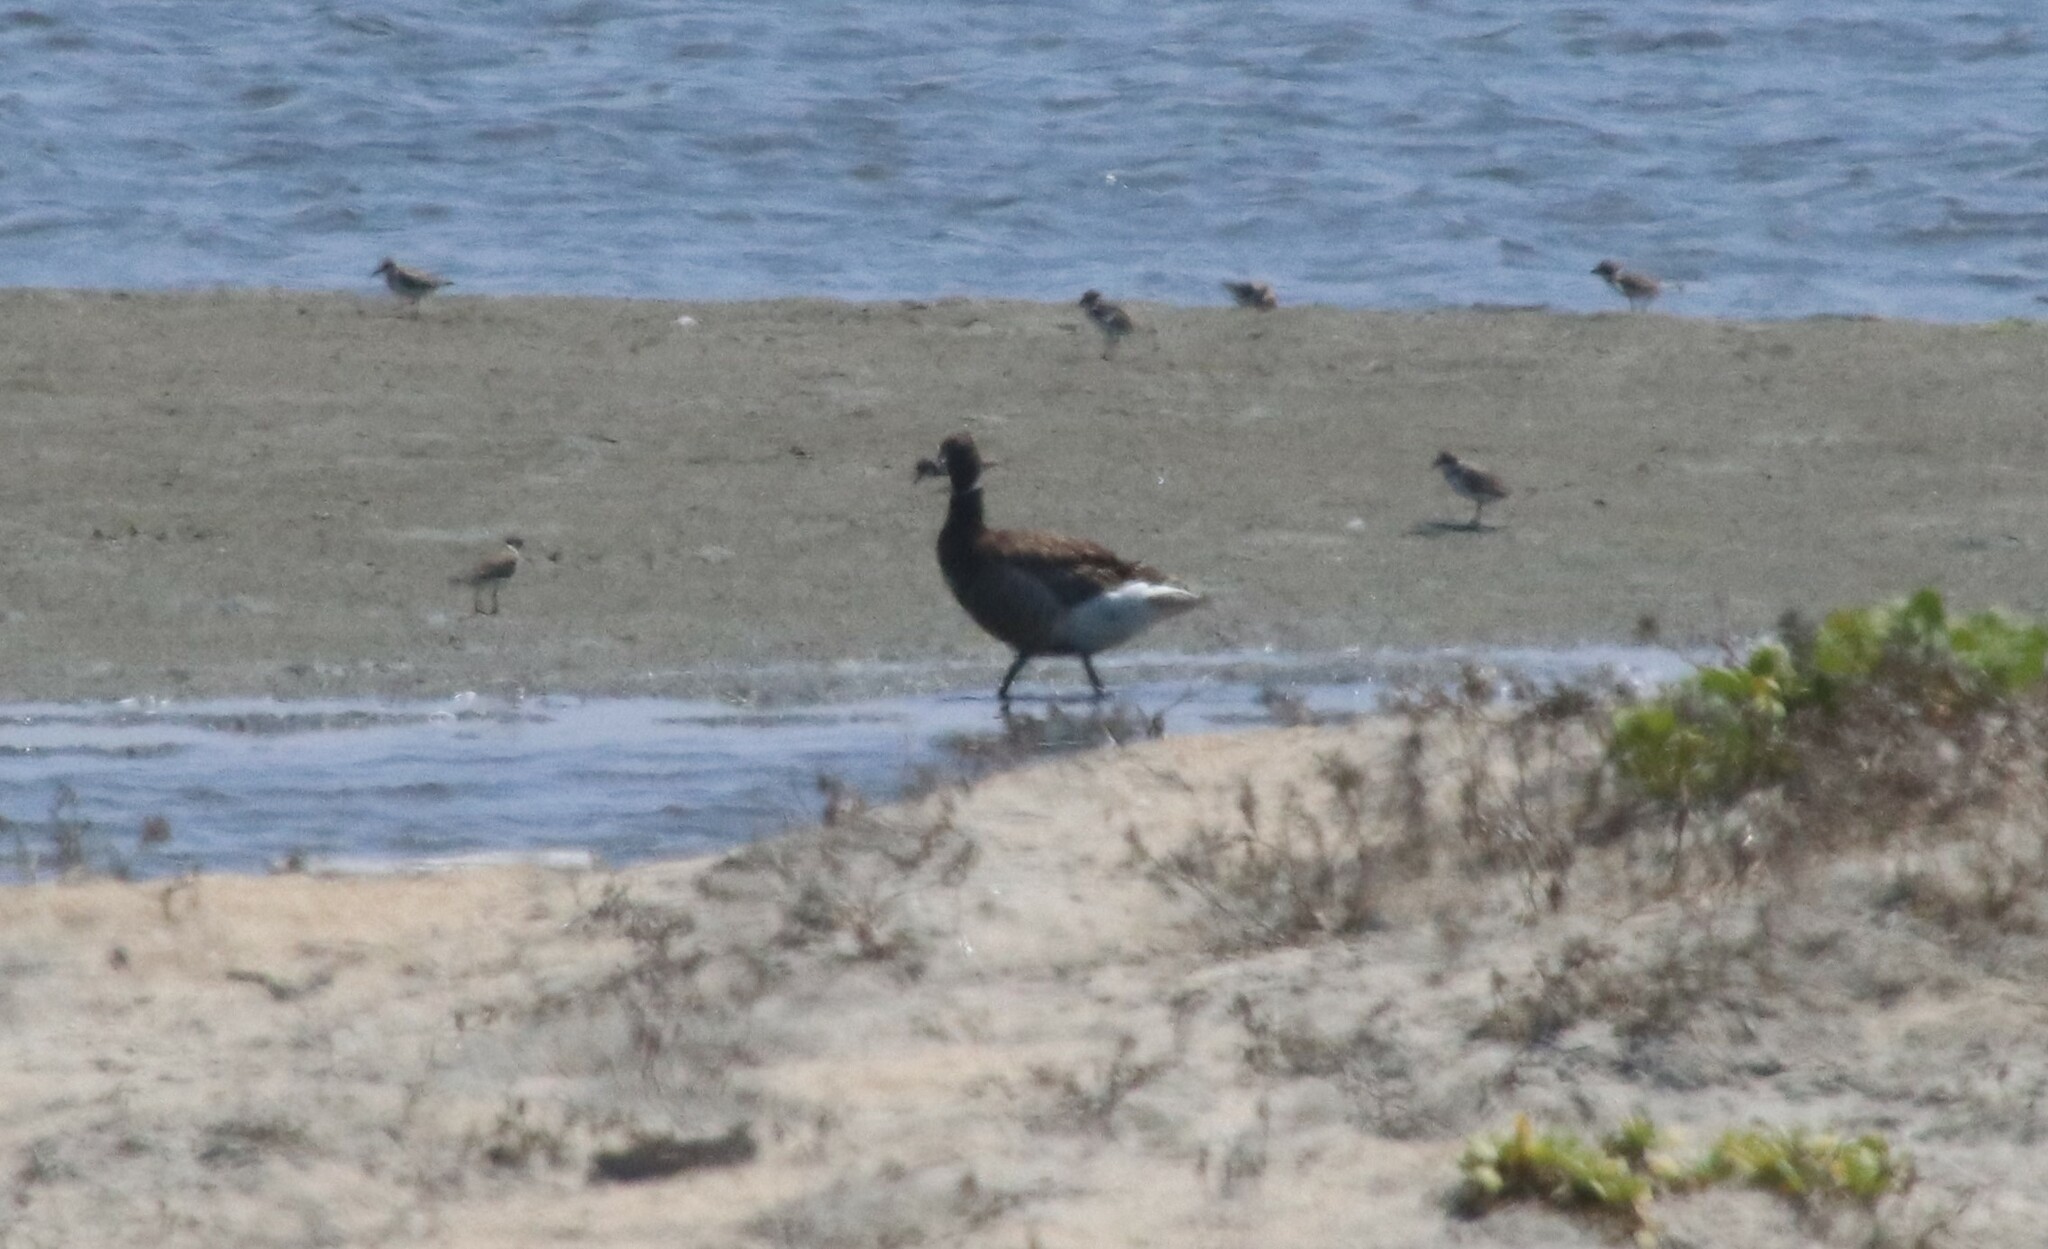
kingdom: Animalia
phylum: Chordata
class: Aves
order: Anseriformes
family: Anatidae
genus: Branta
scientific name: Branta bernicla
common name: Brant goose
